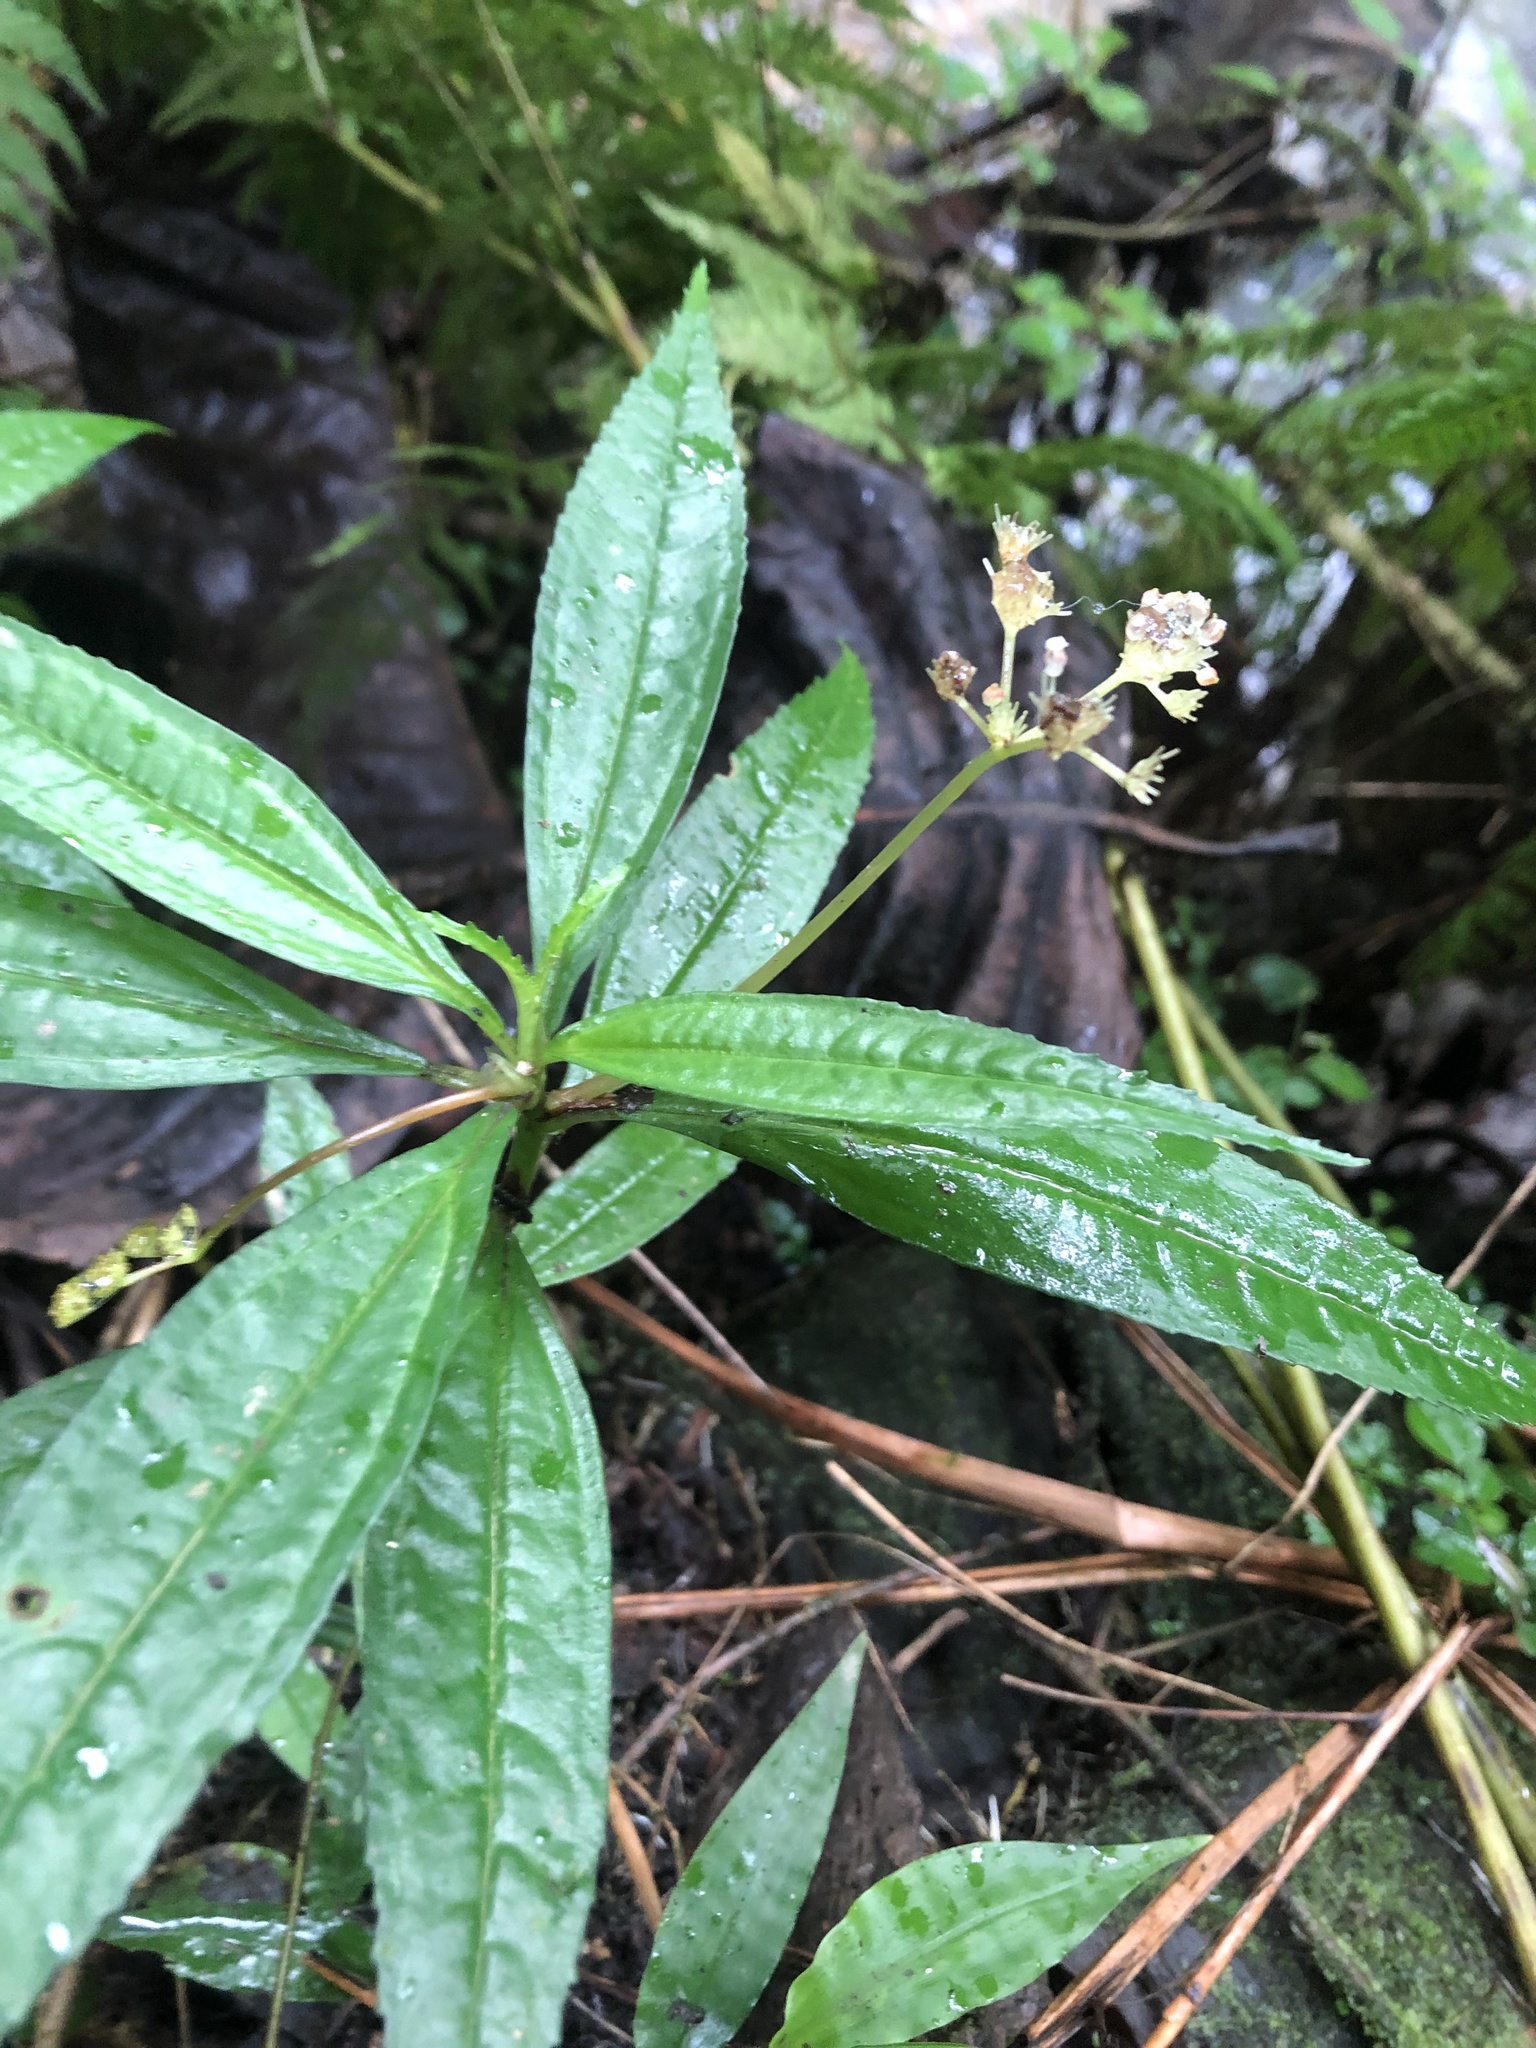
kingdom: Plantae
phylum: Tracheophyta
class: Magnoliopsida
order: Rosales
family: Urticaceae
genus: Pilea
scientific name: Pilea semidentata
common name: Cliffside clearweed
